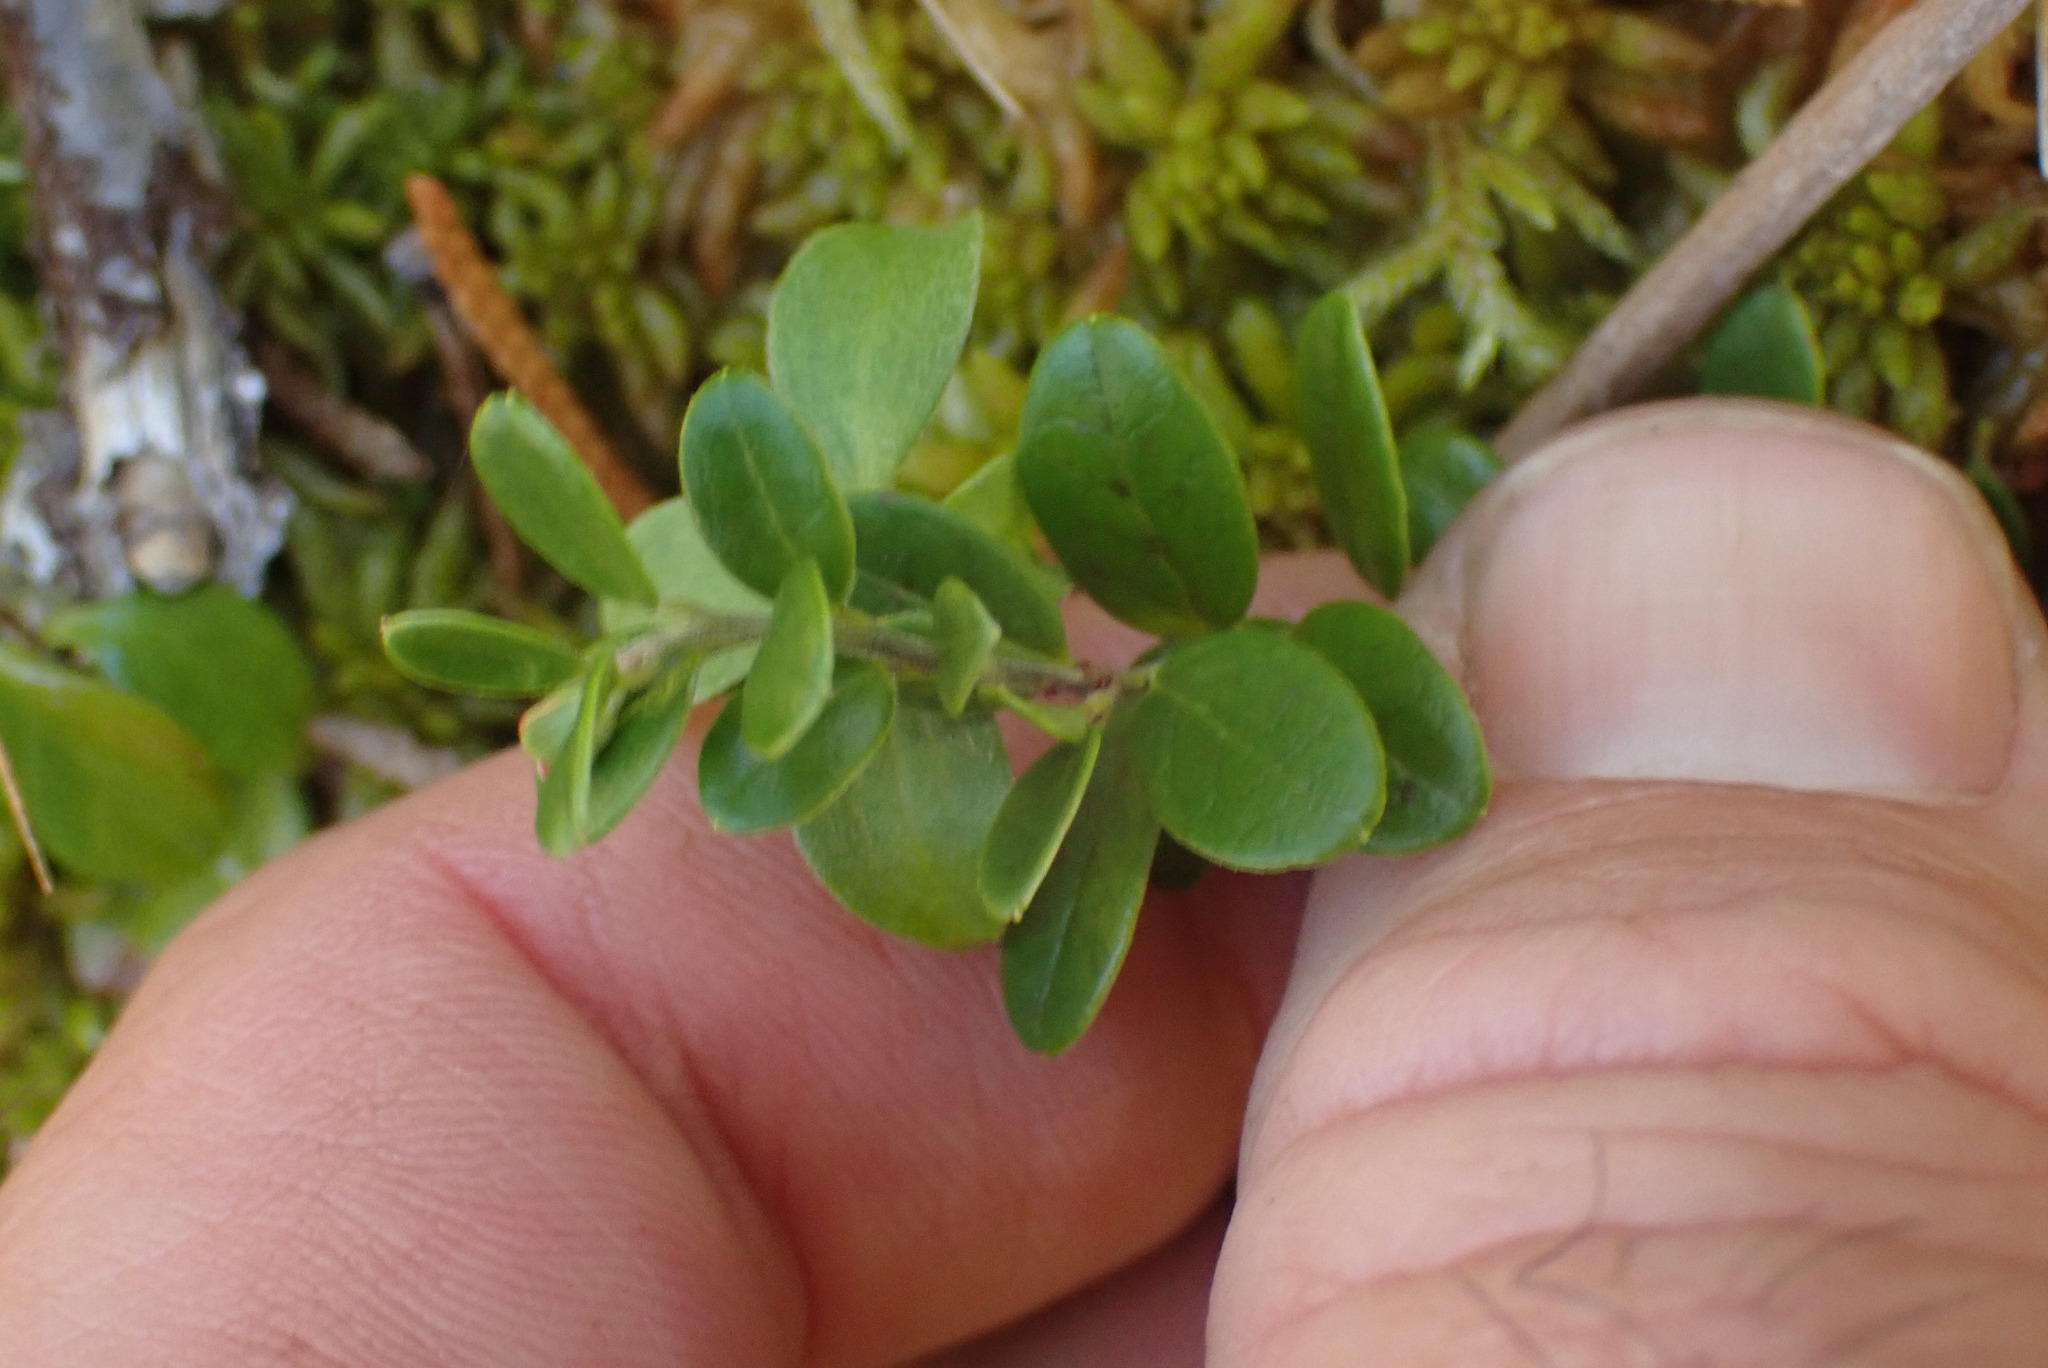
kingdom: Plantae
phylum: Tracheophyta
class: Magnoliopsida
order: Ericales
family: Ericaceae
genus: Vaccinium
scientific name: Vaccinium vitis-idaea
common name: Cowberry
